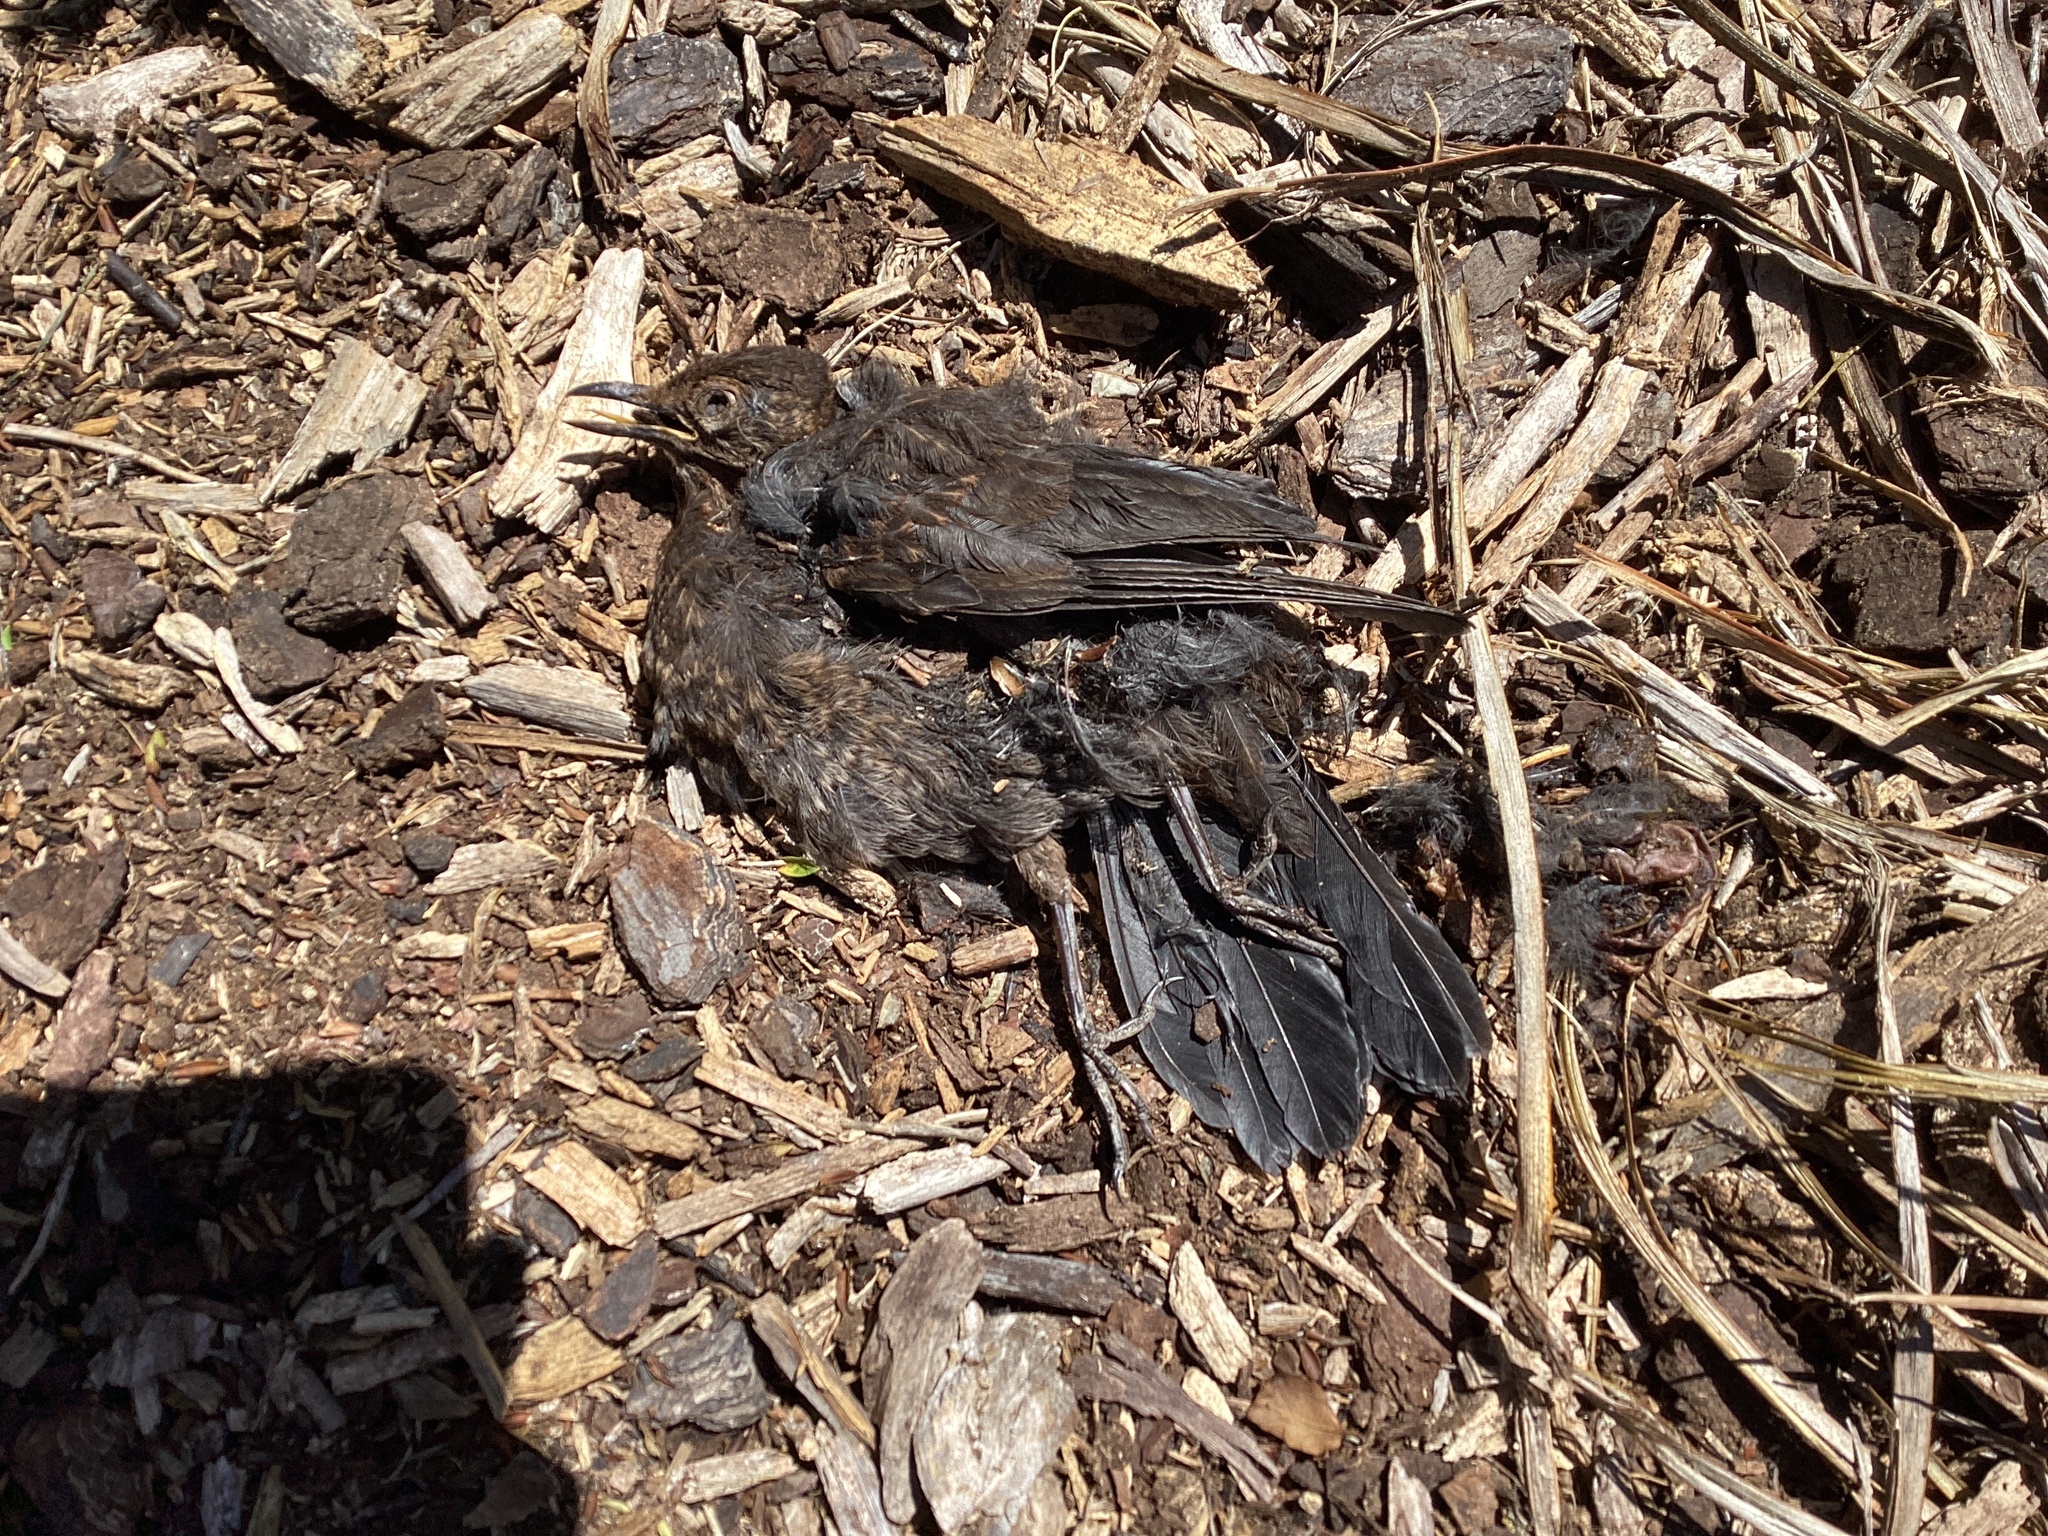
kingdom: Animalia
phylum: Chordata
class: Aves
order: Passeriformes
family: Turdidae
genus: Turdus
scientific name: Turdus merula
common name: Common blackbird
